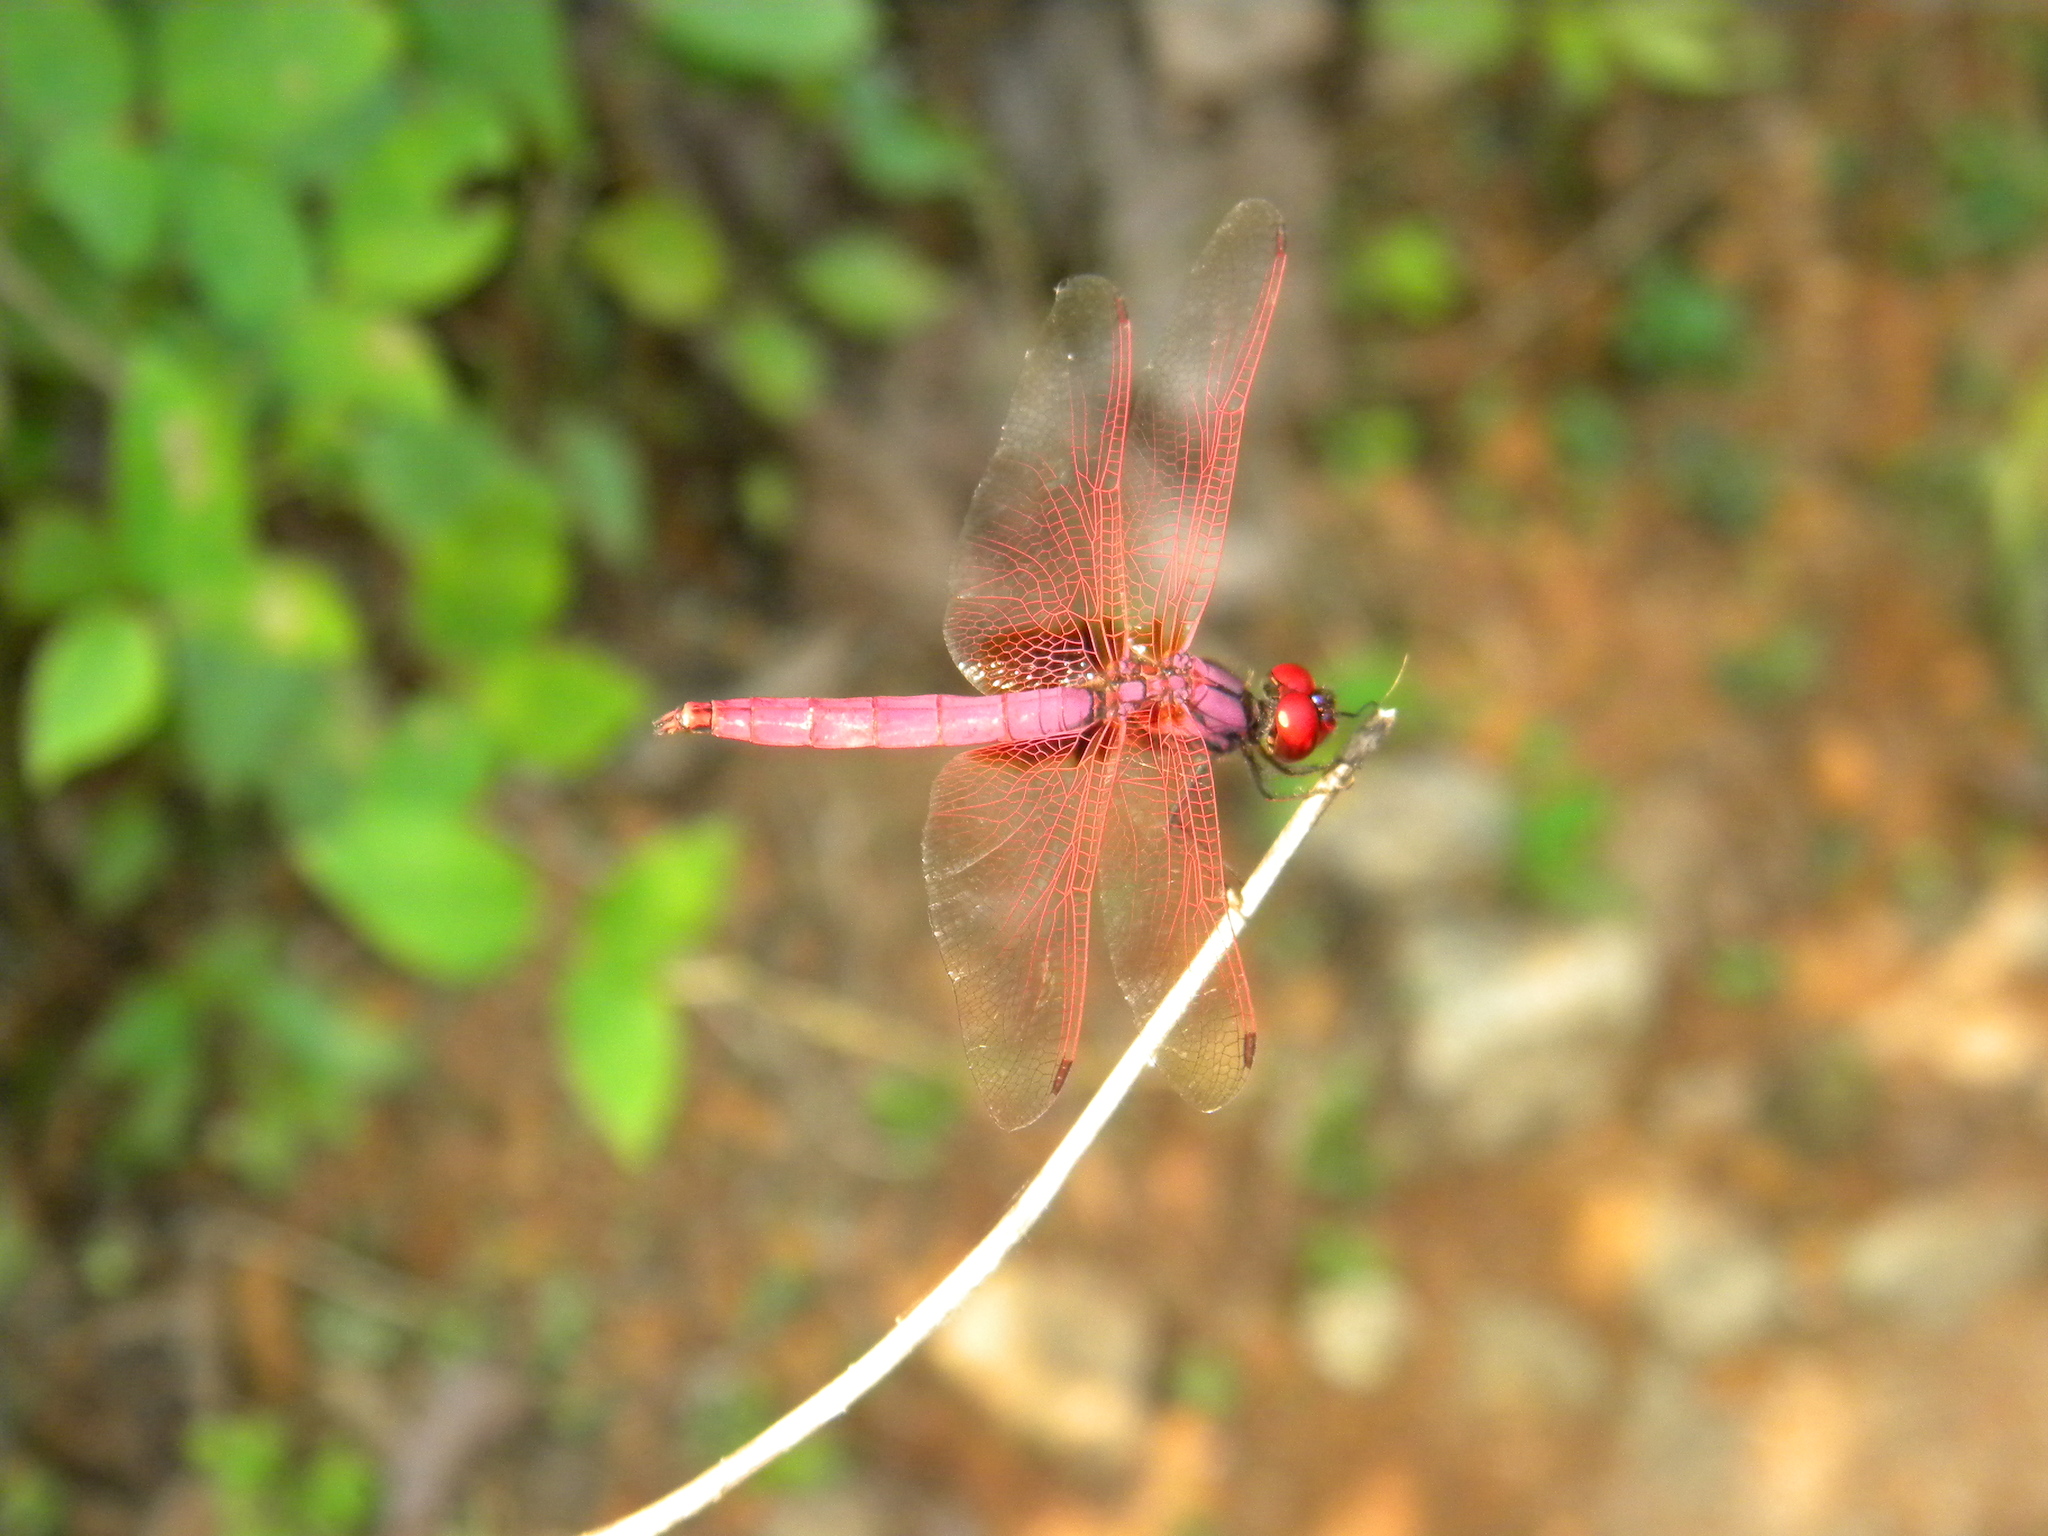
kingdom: Animalia
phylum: Arthropoda
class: Insecta
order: Odonata
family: Libellulidae
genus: Trithemis
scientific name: Trithemis aurora
